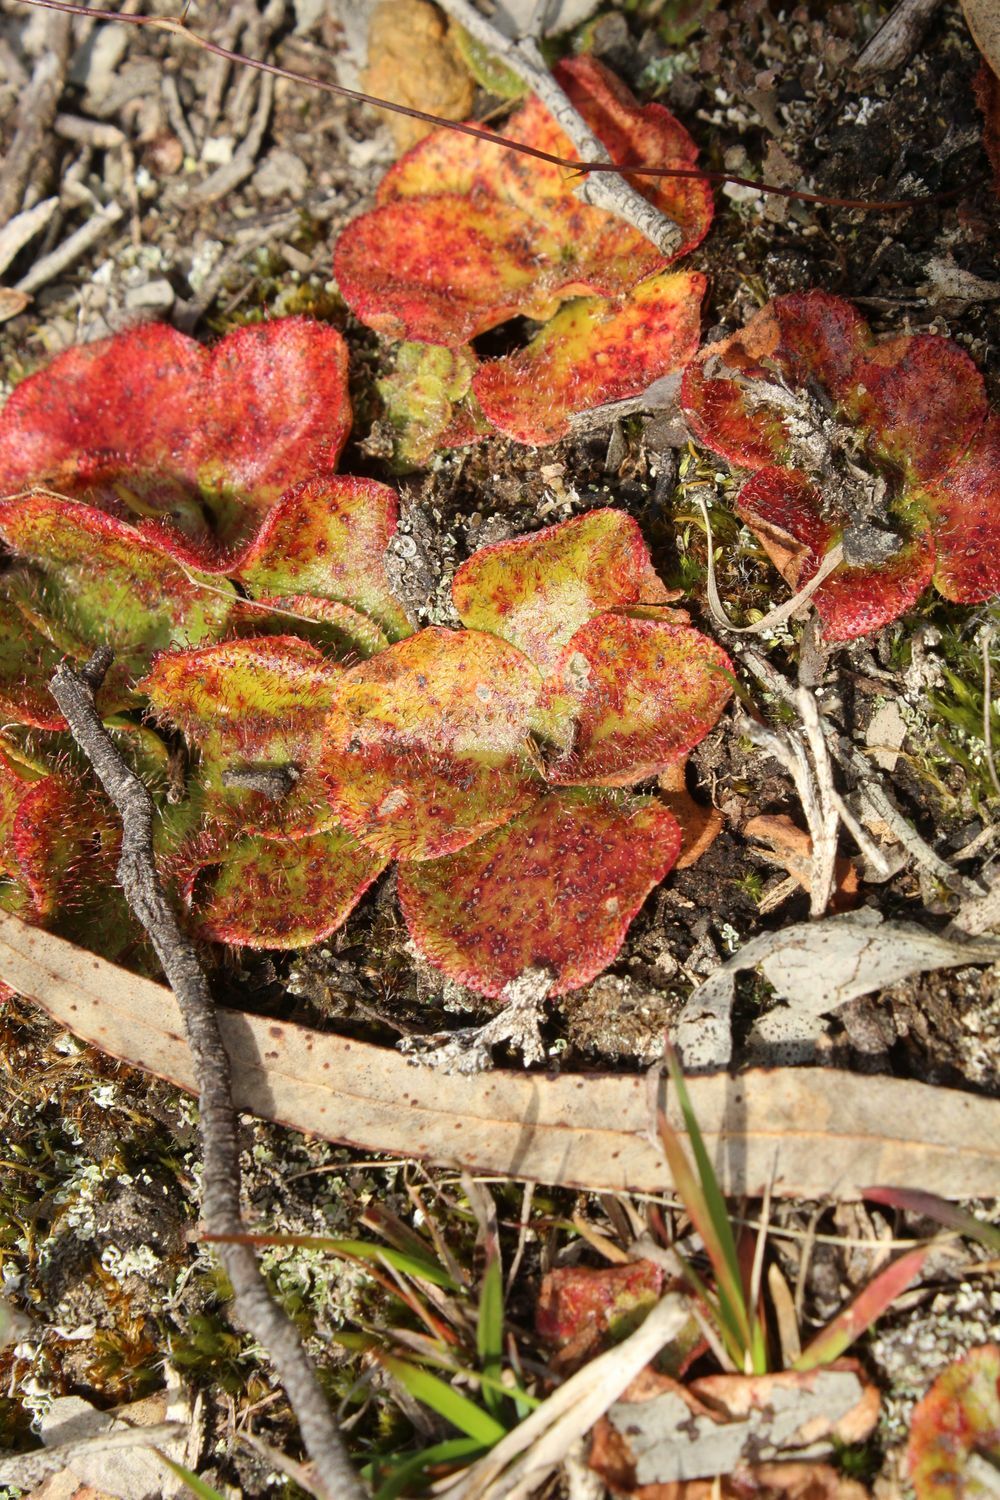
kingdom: Plantae
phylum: Tracheophyta
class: Magnoliopsida
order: Caryophyllales
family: Droseraceae
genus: Drosera
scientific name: Drosera erythrorhiza
